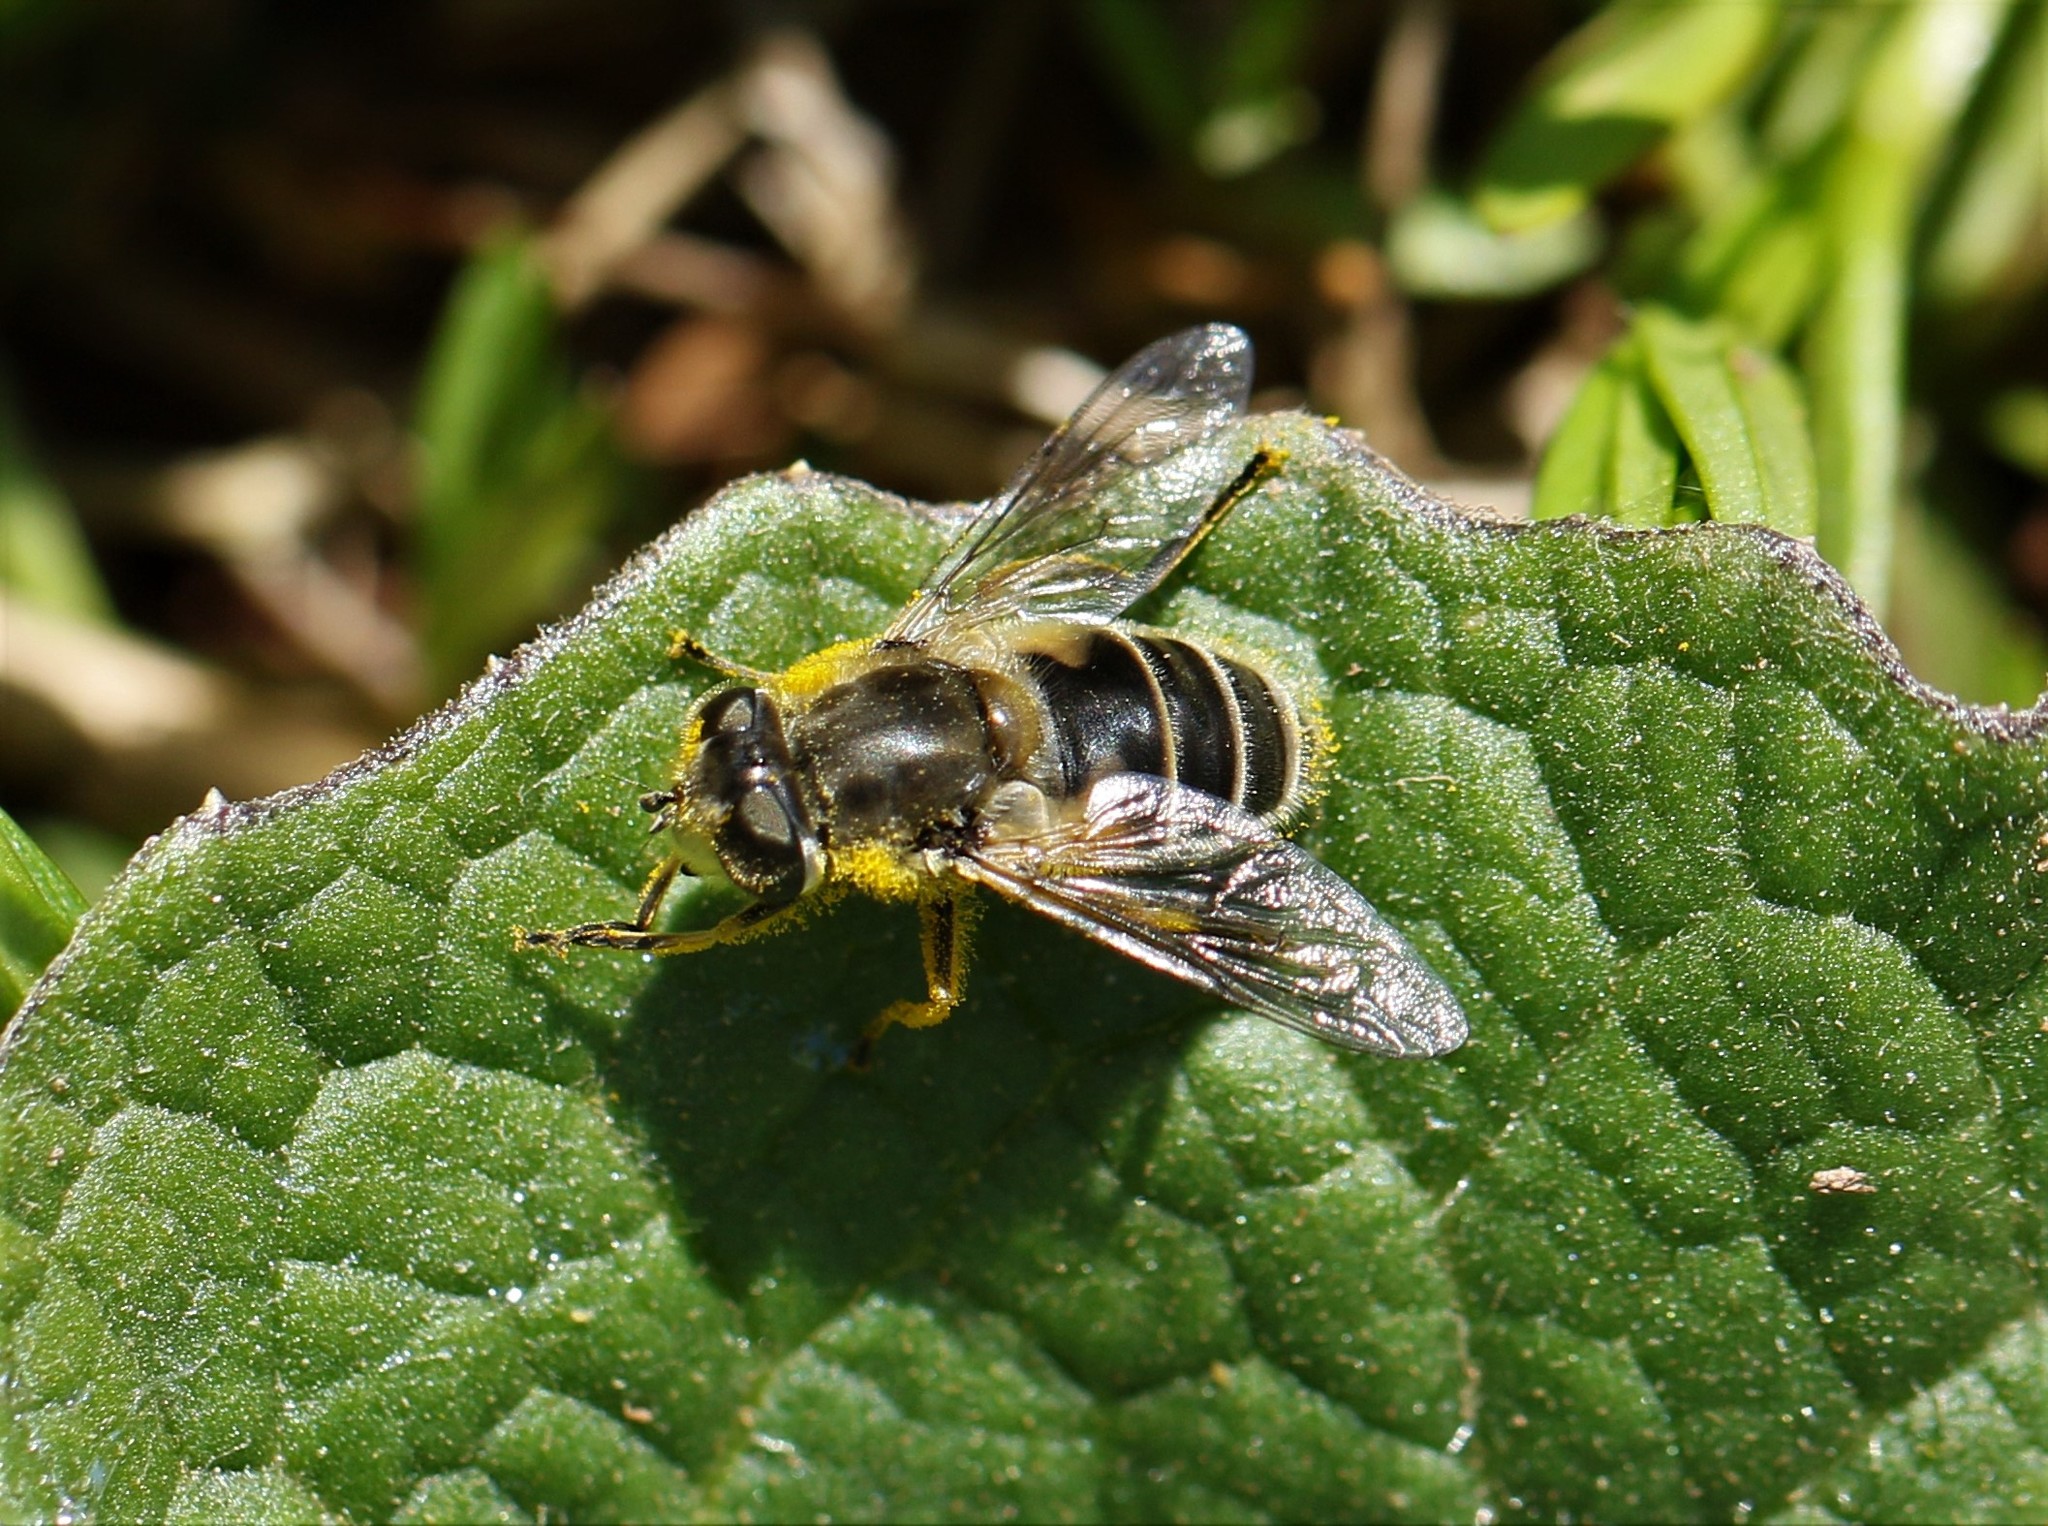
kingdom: Animalia
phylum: Arthropoda
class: Insecta
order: Diptera
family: Syrphidae
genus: Eristalis
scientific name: Eristalis arbustorum
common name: Hover fly
